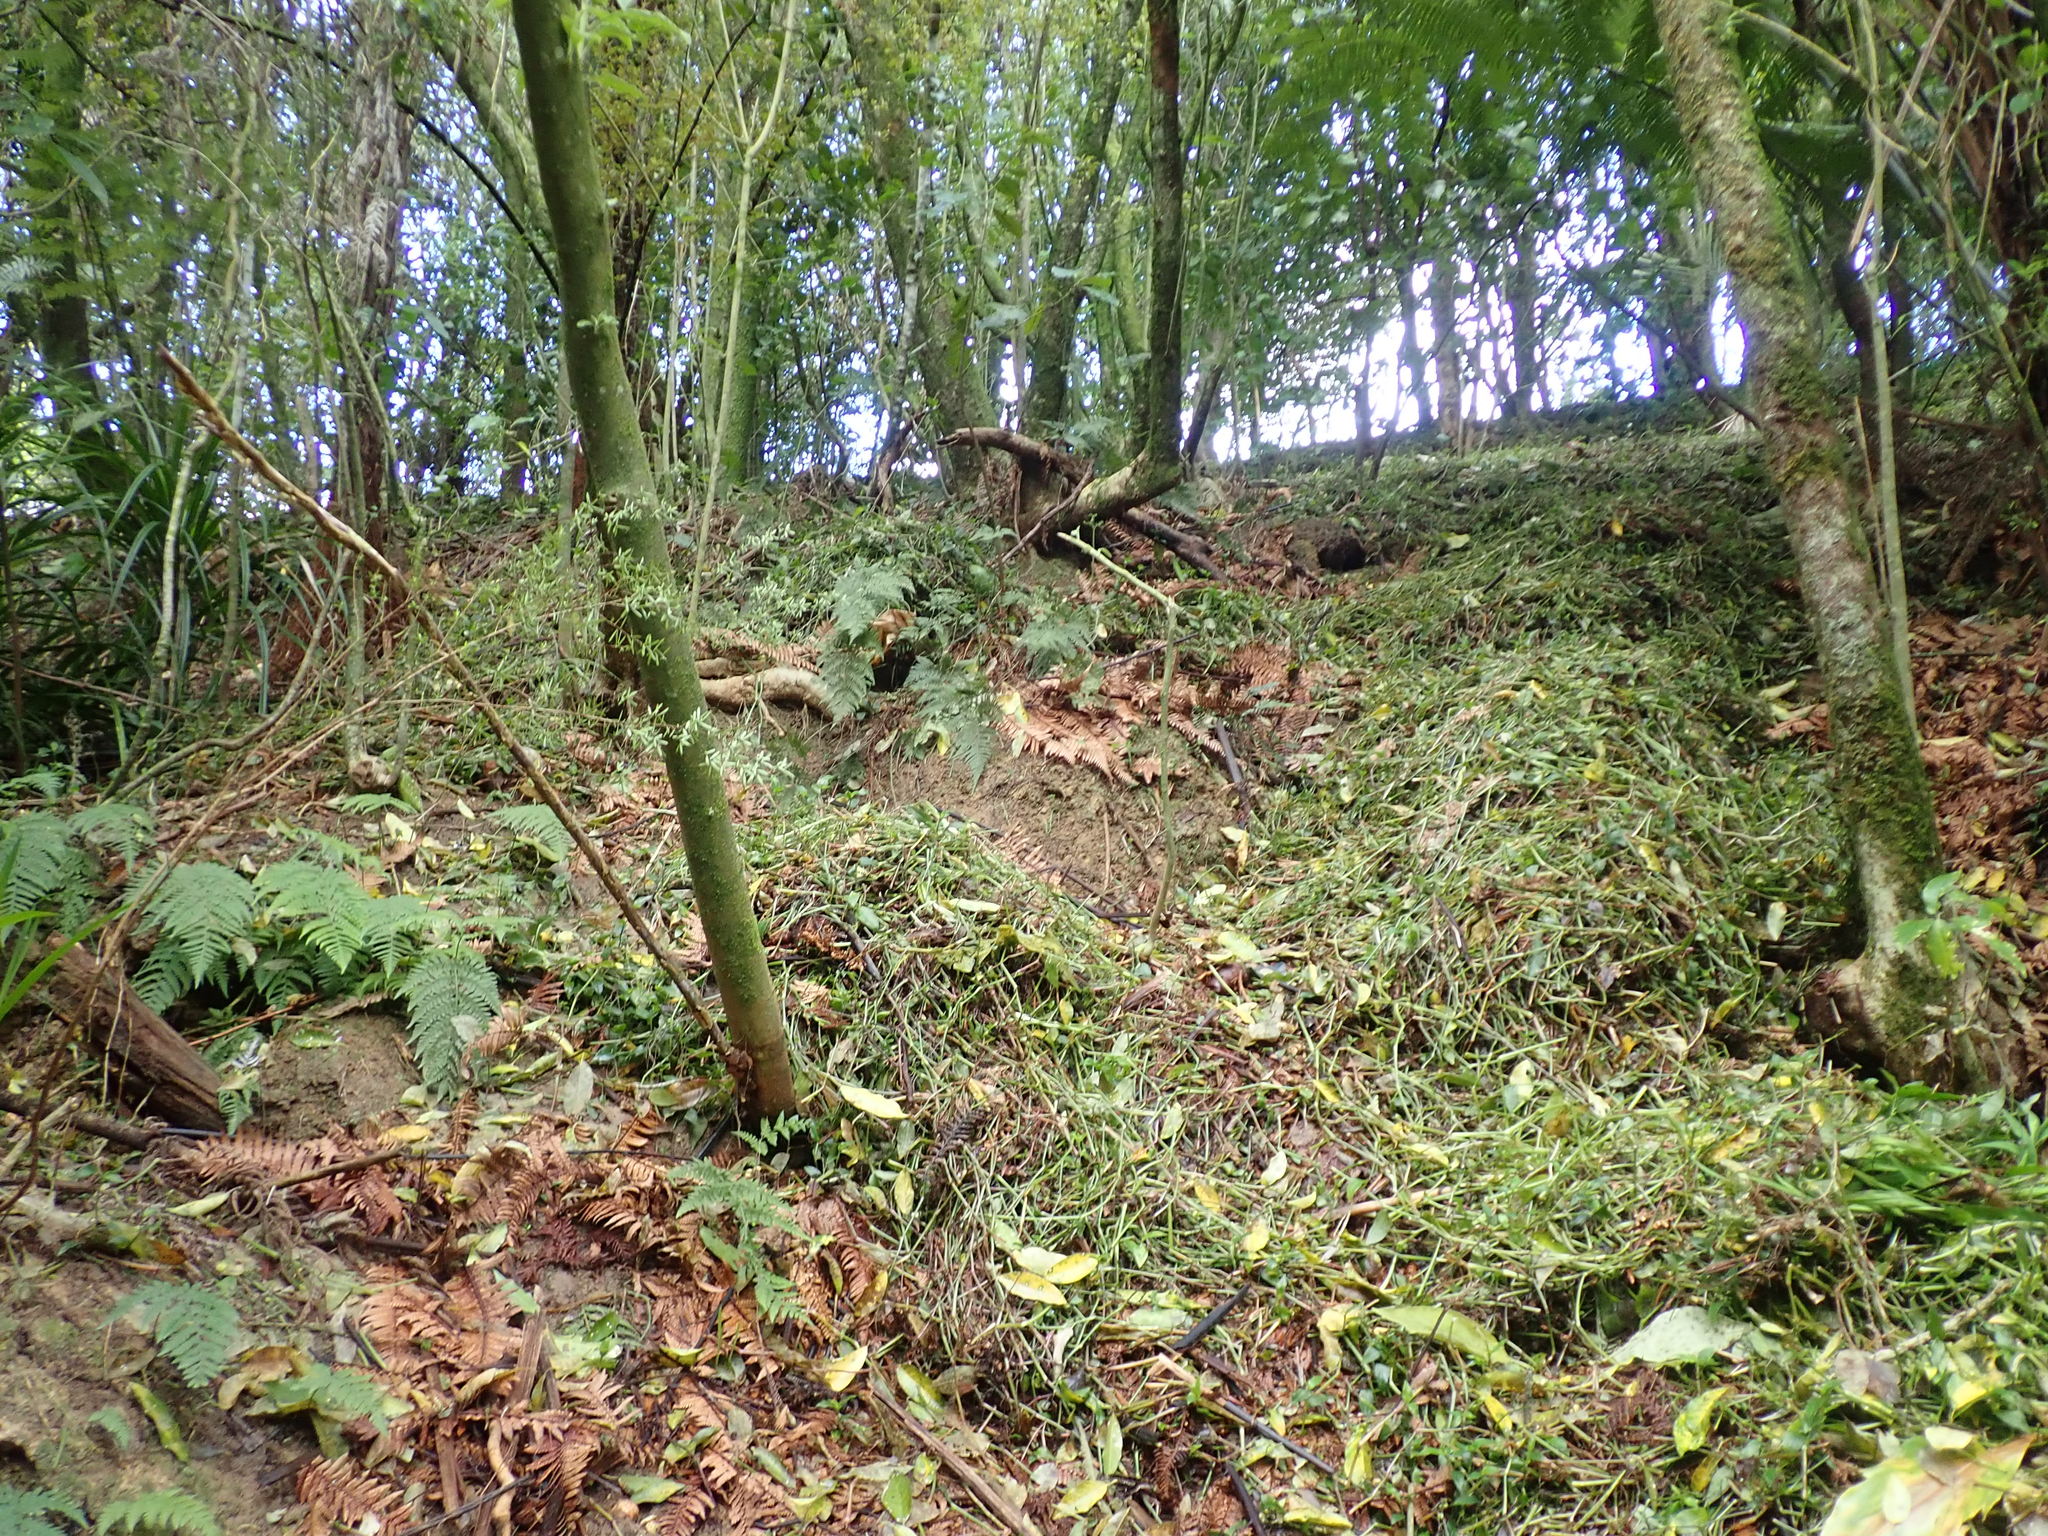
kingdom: Plantae
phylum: Tracheophyta
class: Liliopsida
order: Commelinales
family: Commelinaceae
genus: Tradescantia
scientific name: Tradescantia fluminensis
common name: Wandering-jew
